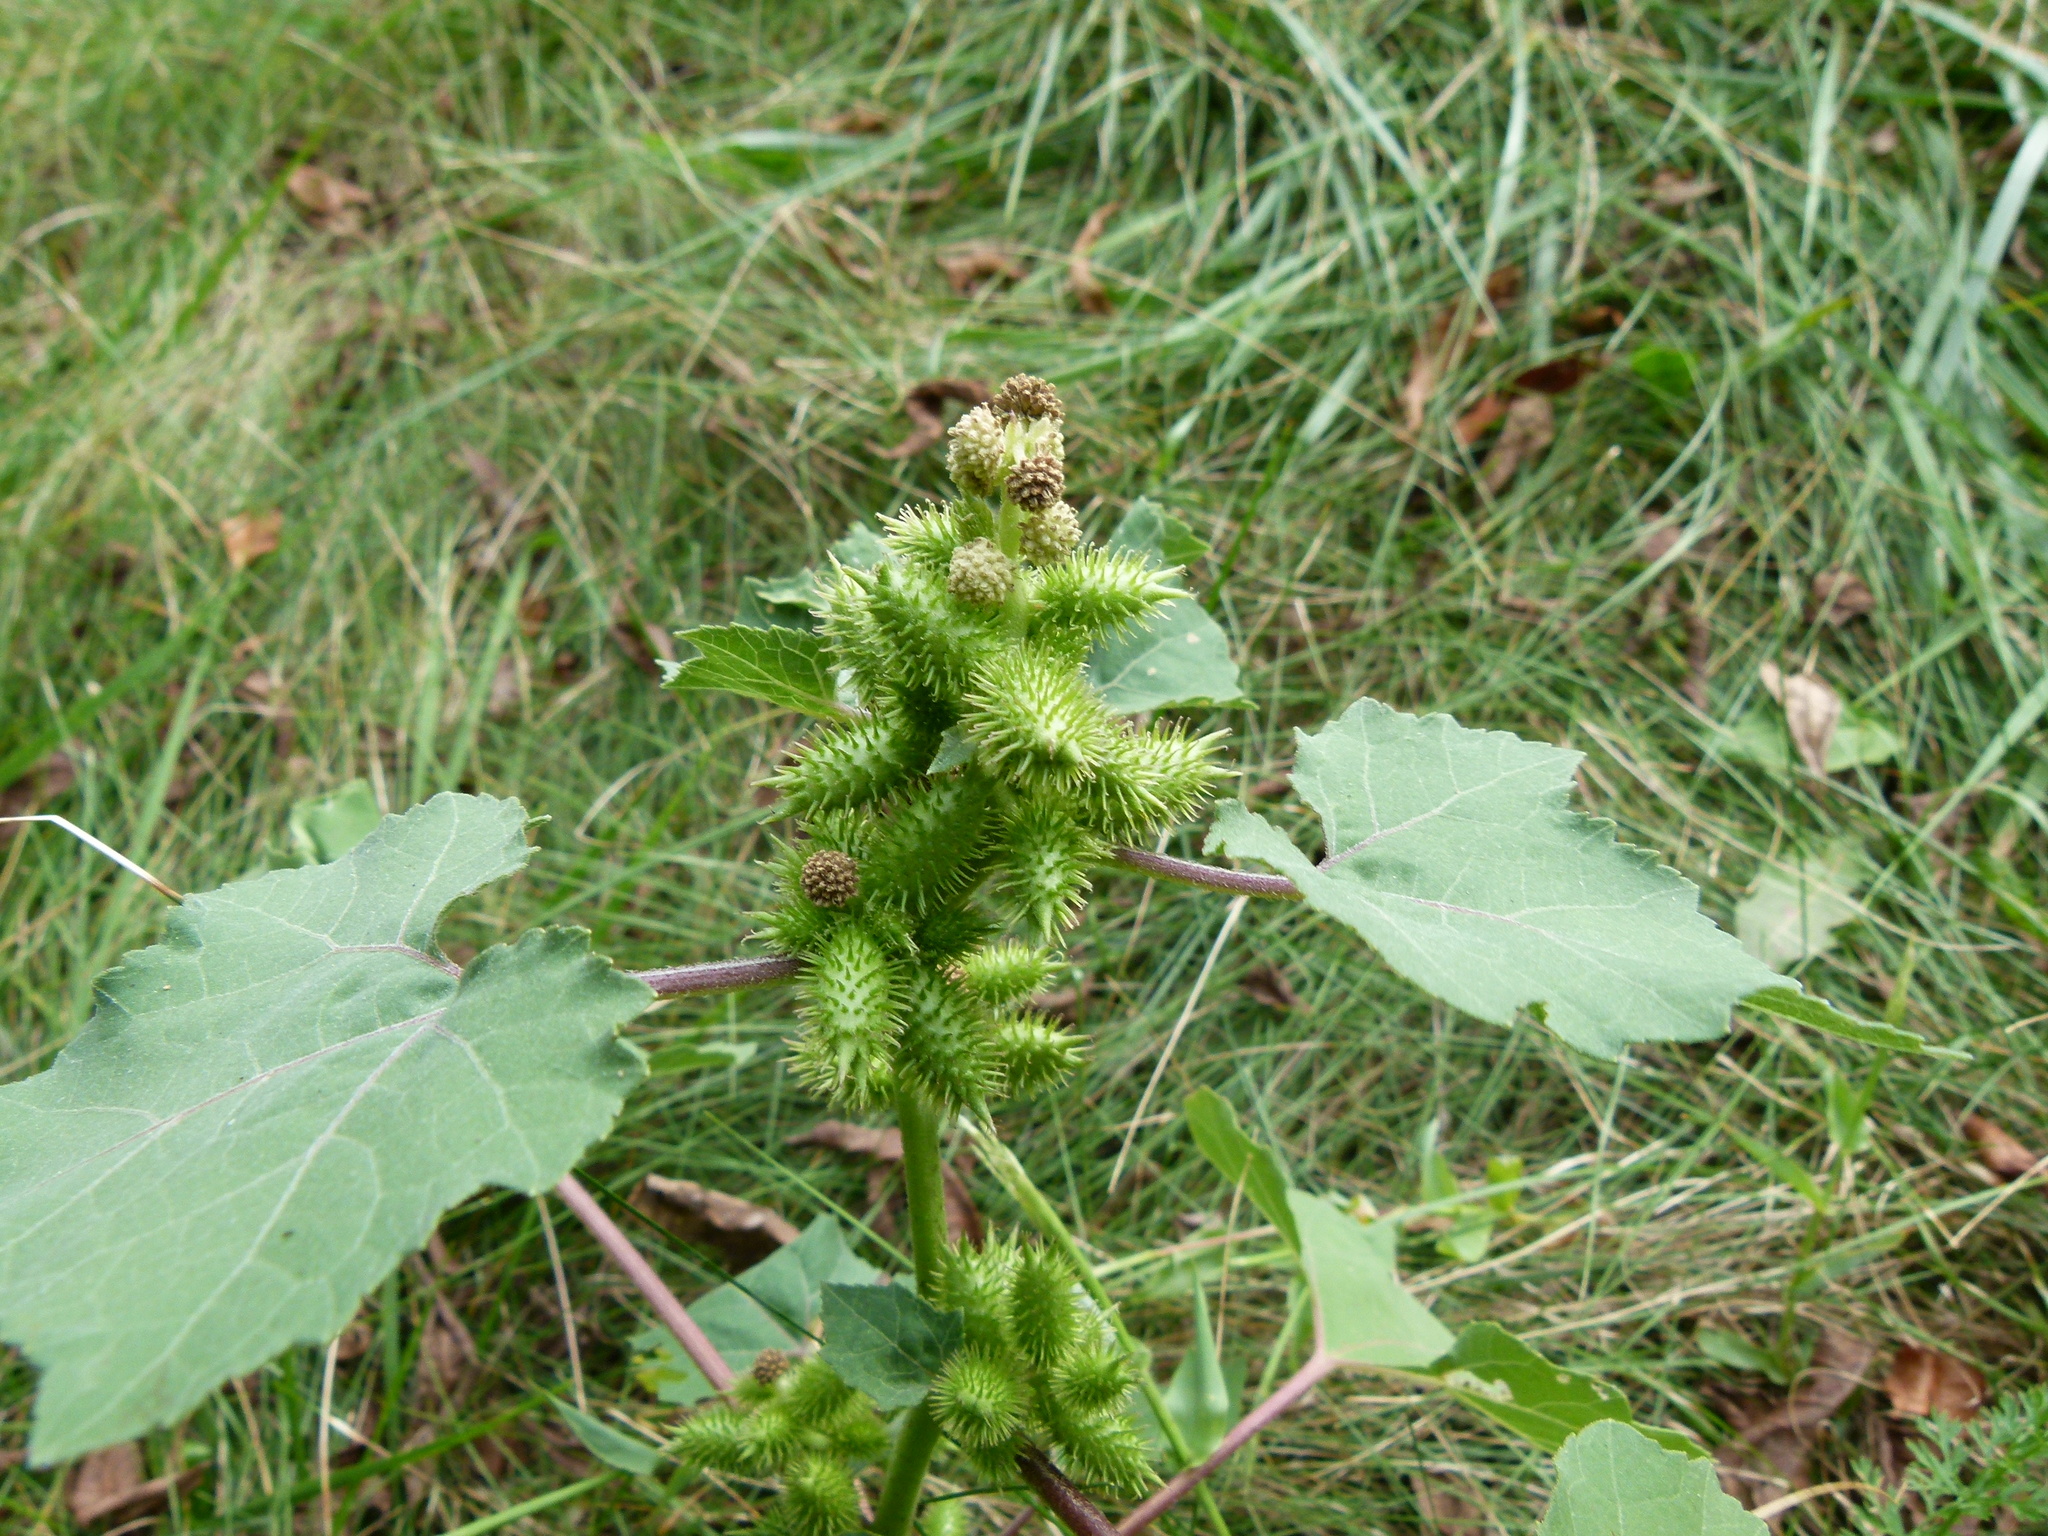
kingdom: Plantae
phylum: Tracheophyta
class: Magnoliopsida
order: Asterales
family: Asteraceae
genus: Xanthium
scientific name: Xanthium strumarium
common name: Rough cocklebur
